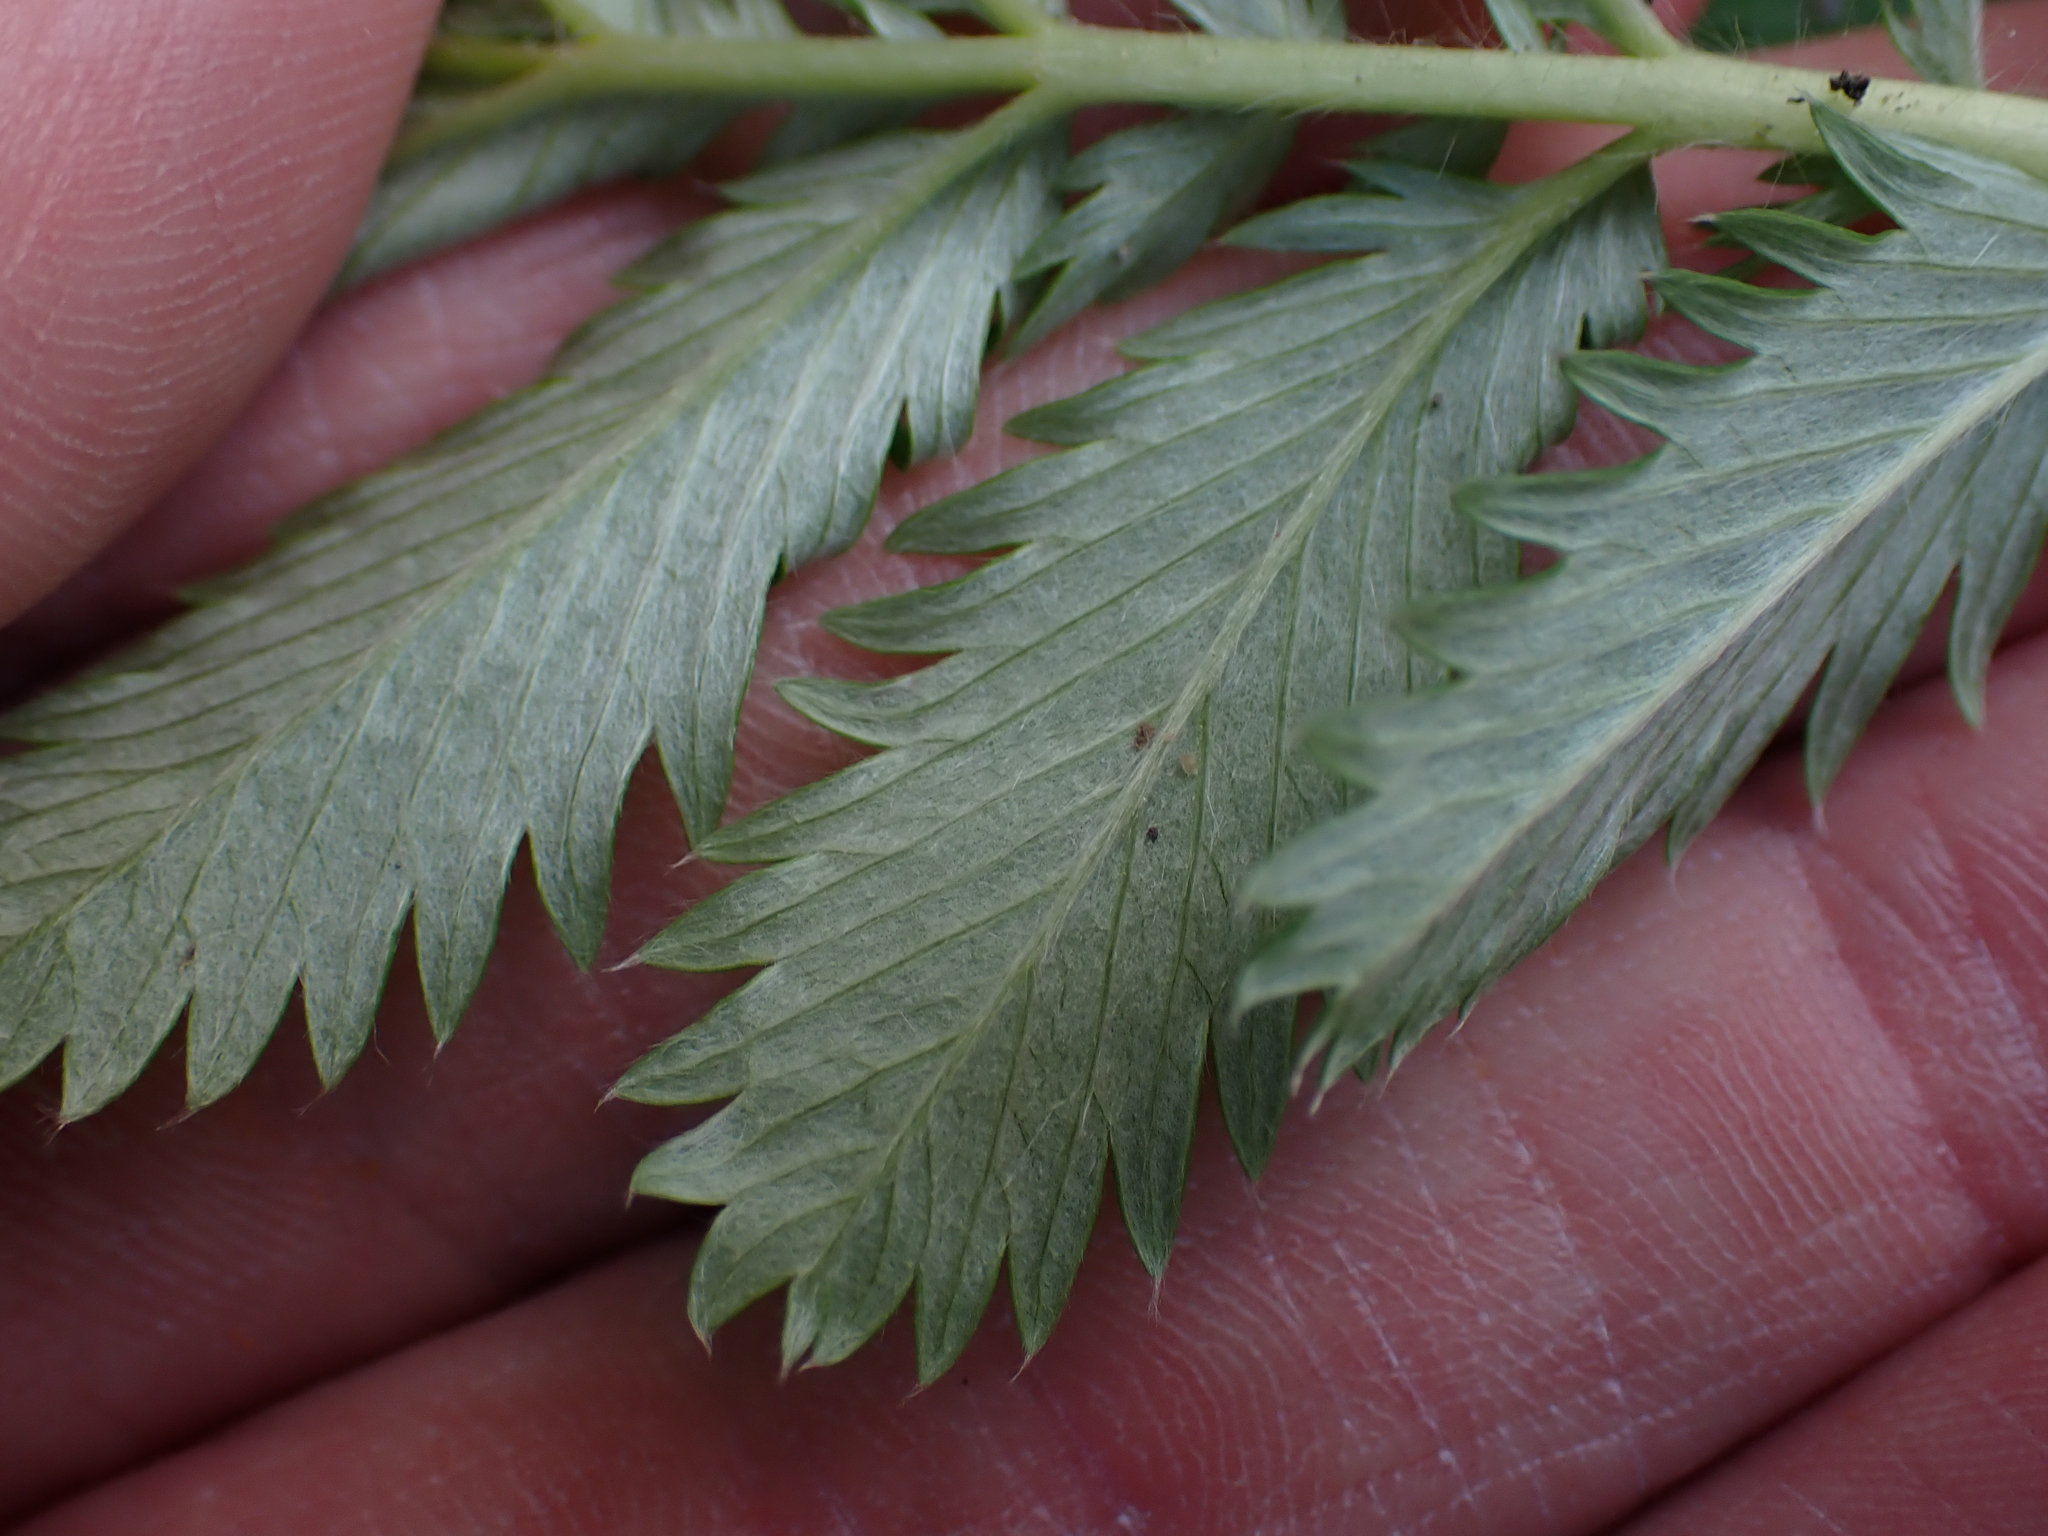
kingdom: Plantae
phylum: Tracheophyta
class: Magnoliopsida
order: Rosales
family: Rosaceae
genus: Argentina
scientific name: Argentina anserina
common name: Common silverweed
